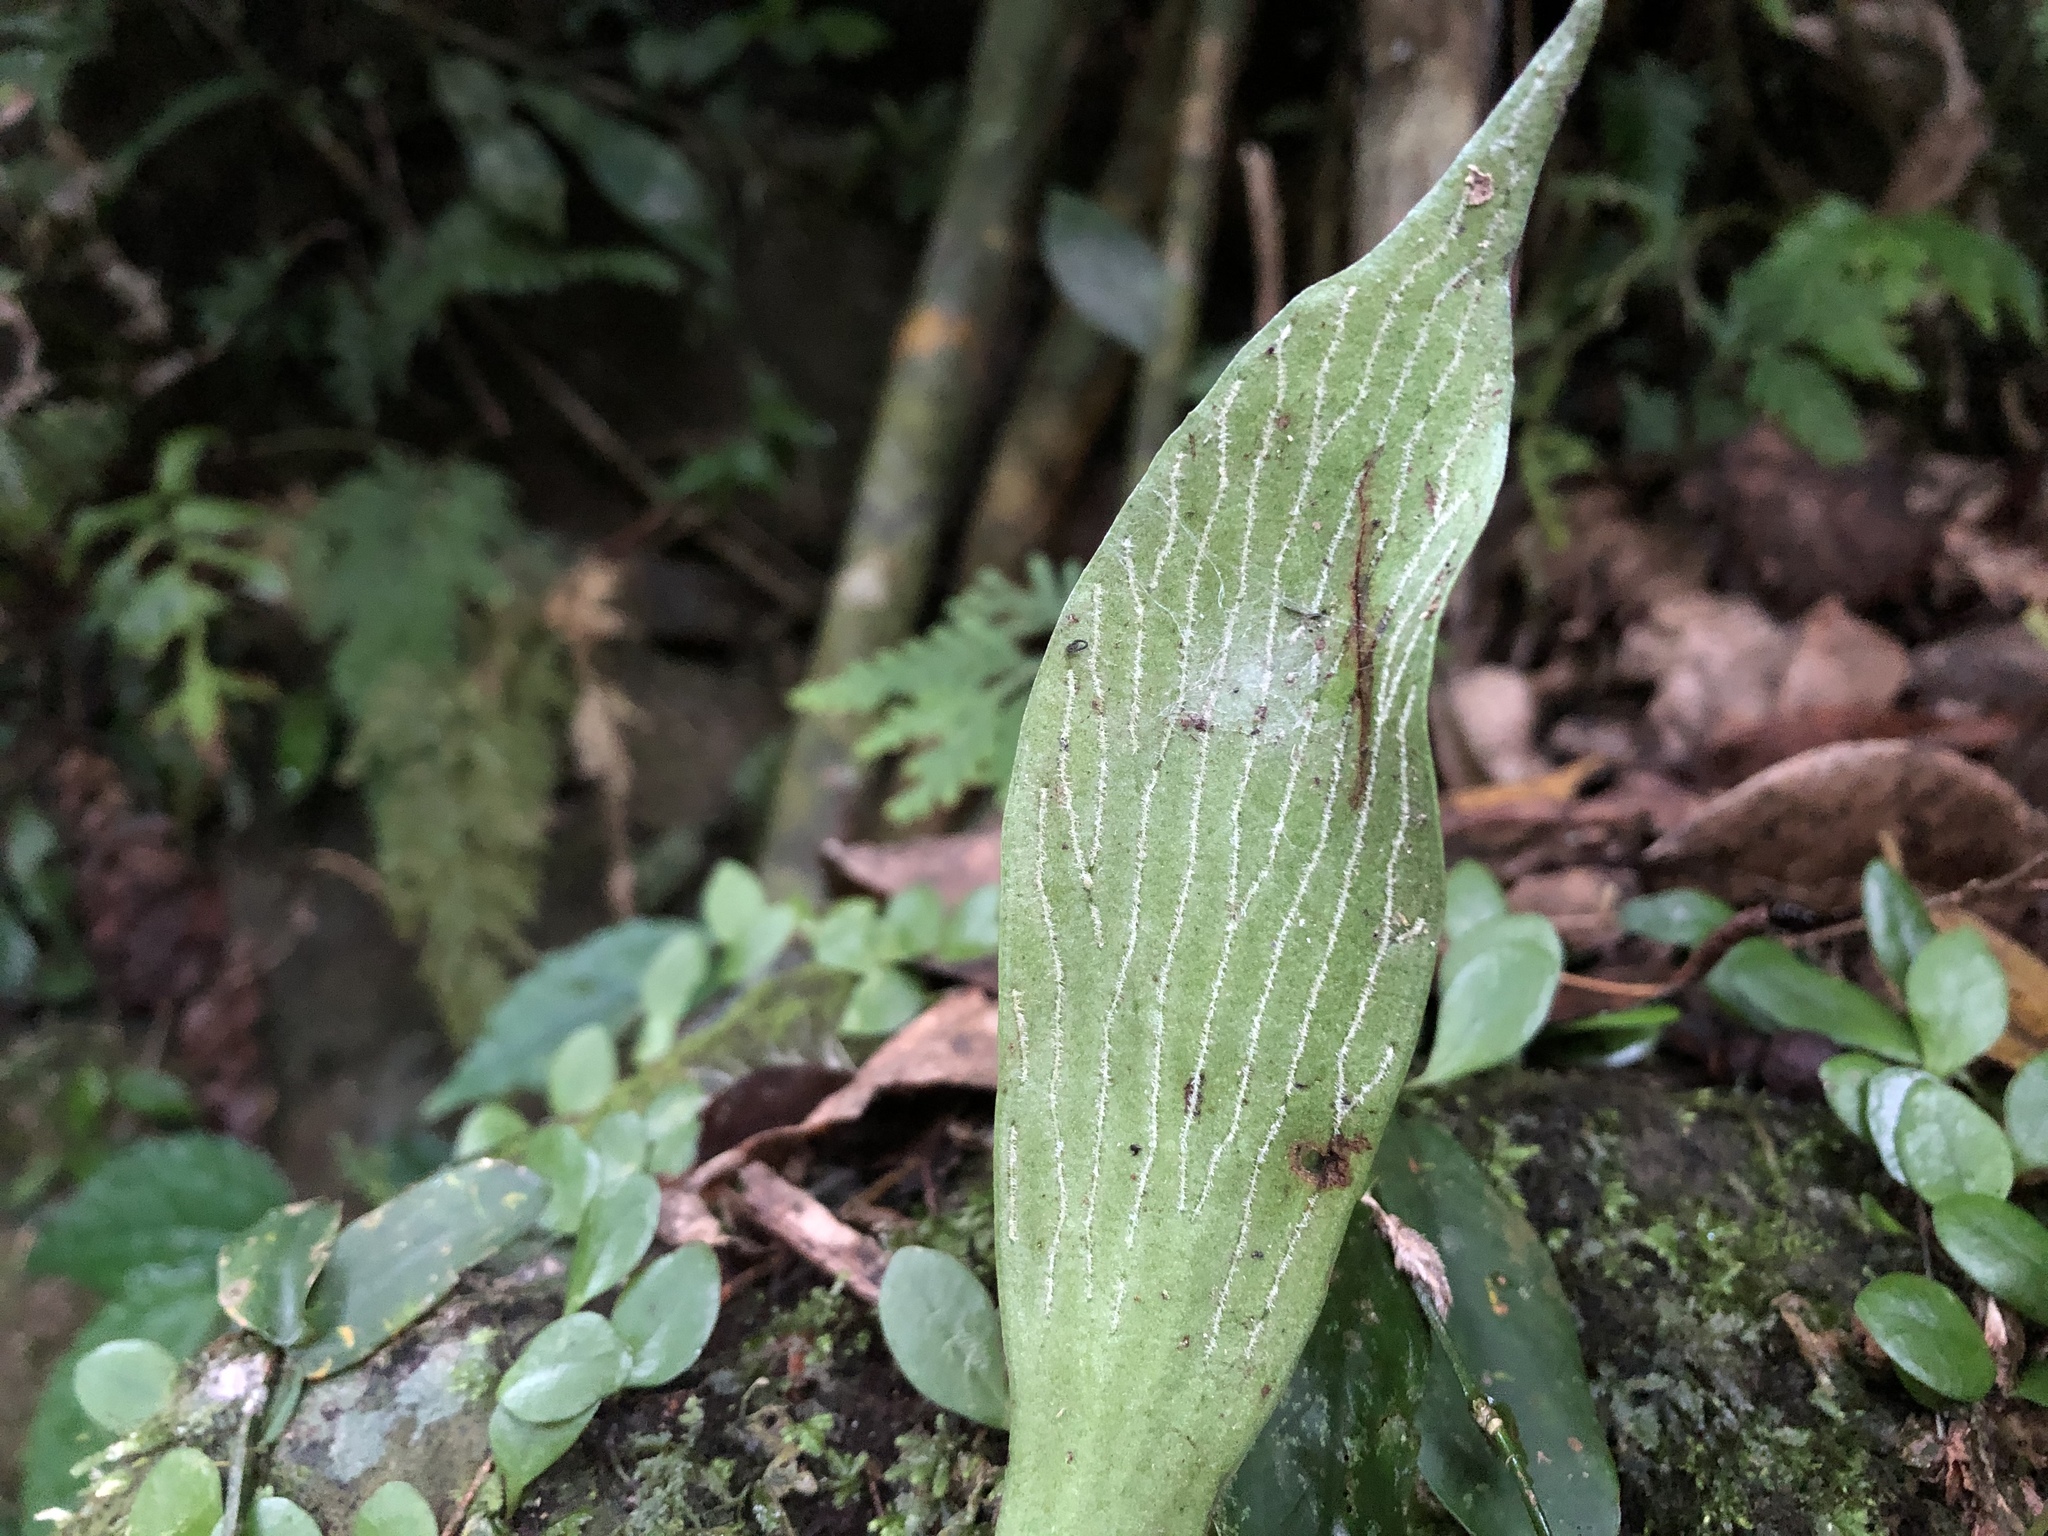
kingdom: Plantae
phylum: Tracheophyta
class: Polypodiopsida
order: Polypodiales
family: Pteridaceae
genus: Antrophyum
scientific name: Antrophyum obovatum
